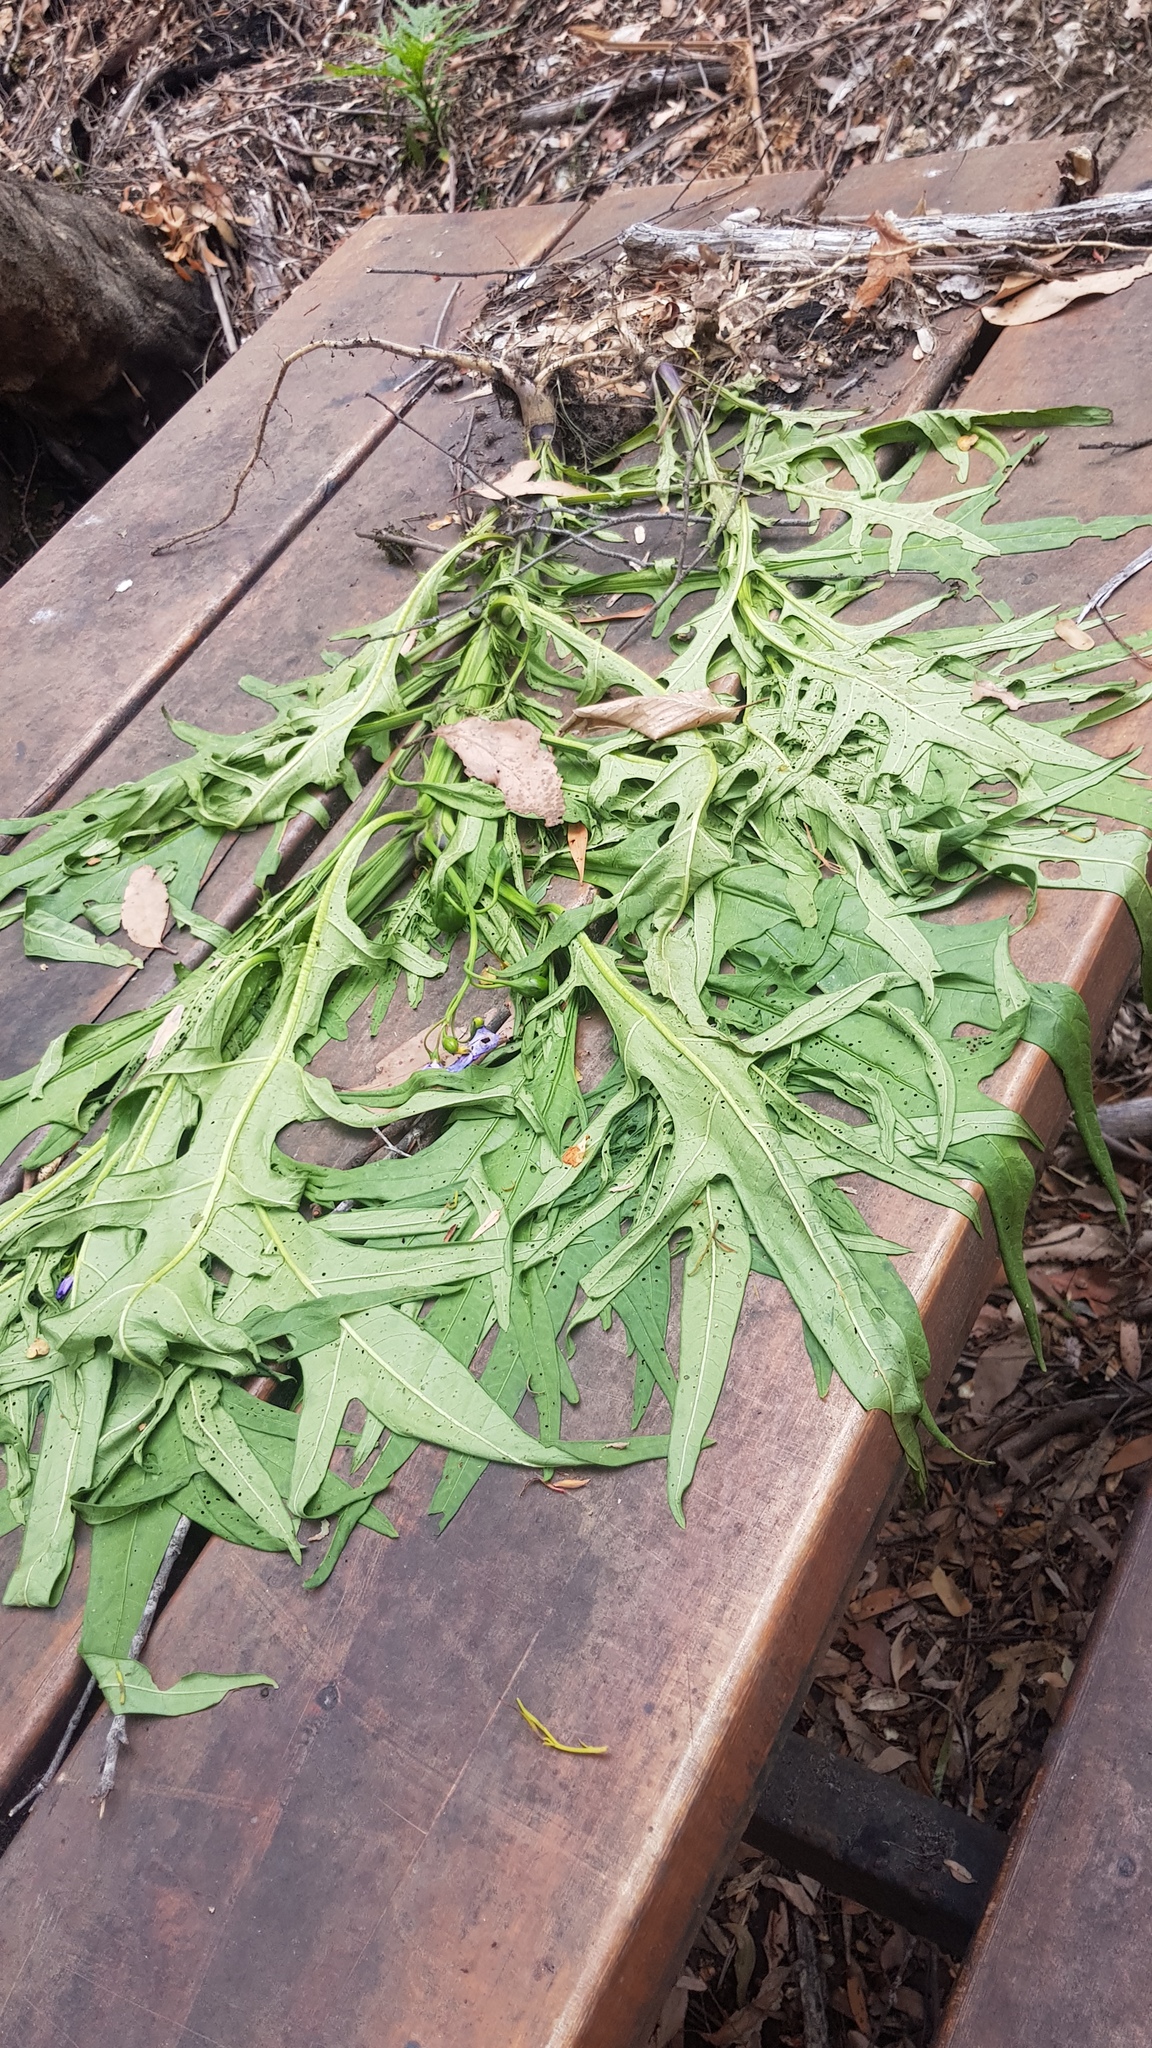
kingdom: Plantae
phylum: Tracheophyta
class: Magnoliopsida
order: Solanales
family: Solanaceae
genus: Solanum
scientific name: Solanum laciniatum
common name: Kangaroo-apple
